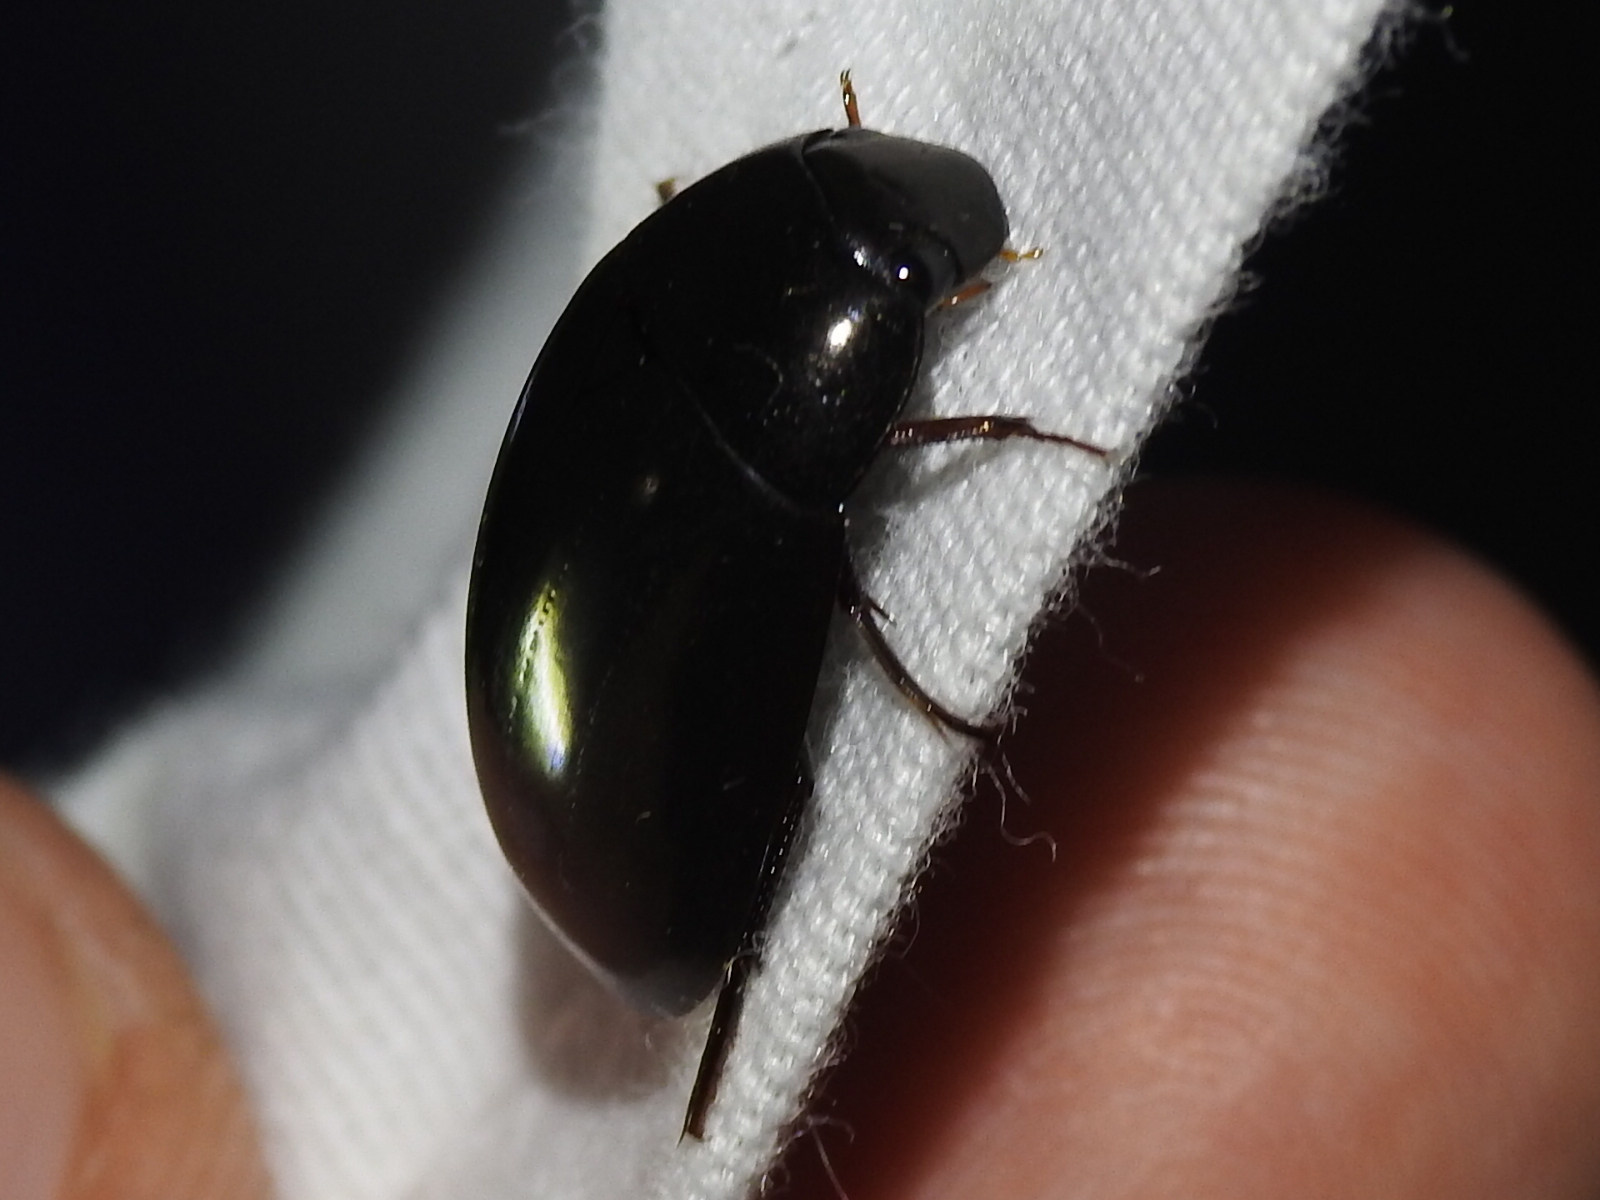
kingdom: Animalia
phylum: Arthropoda
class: Insecta
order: Coleoptera
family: Hydrophilidae
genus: Hydrochara
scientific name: Hydrochara
